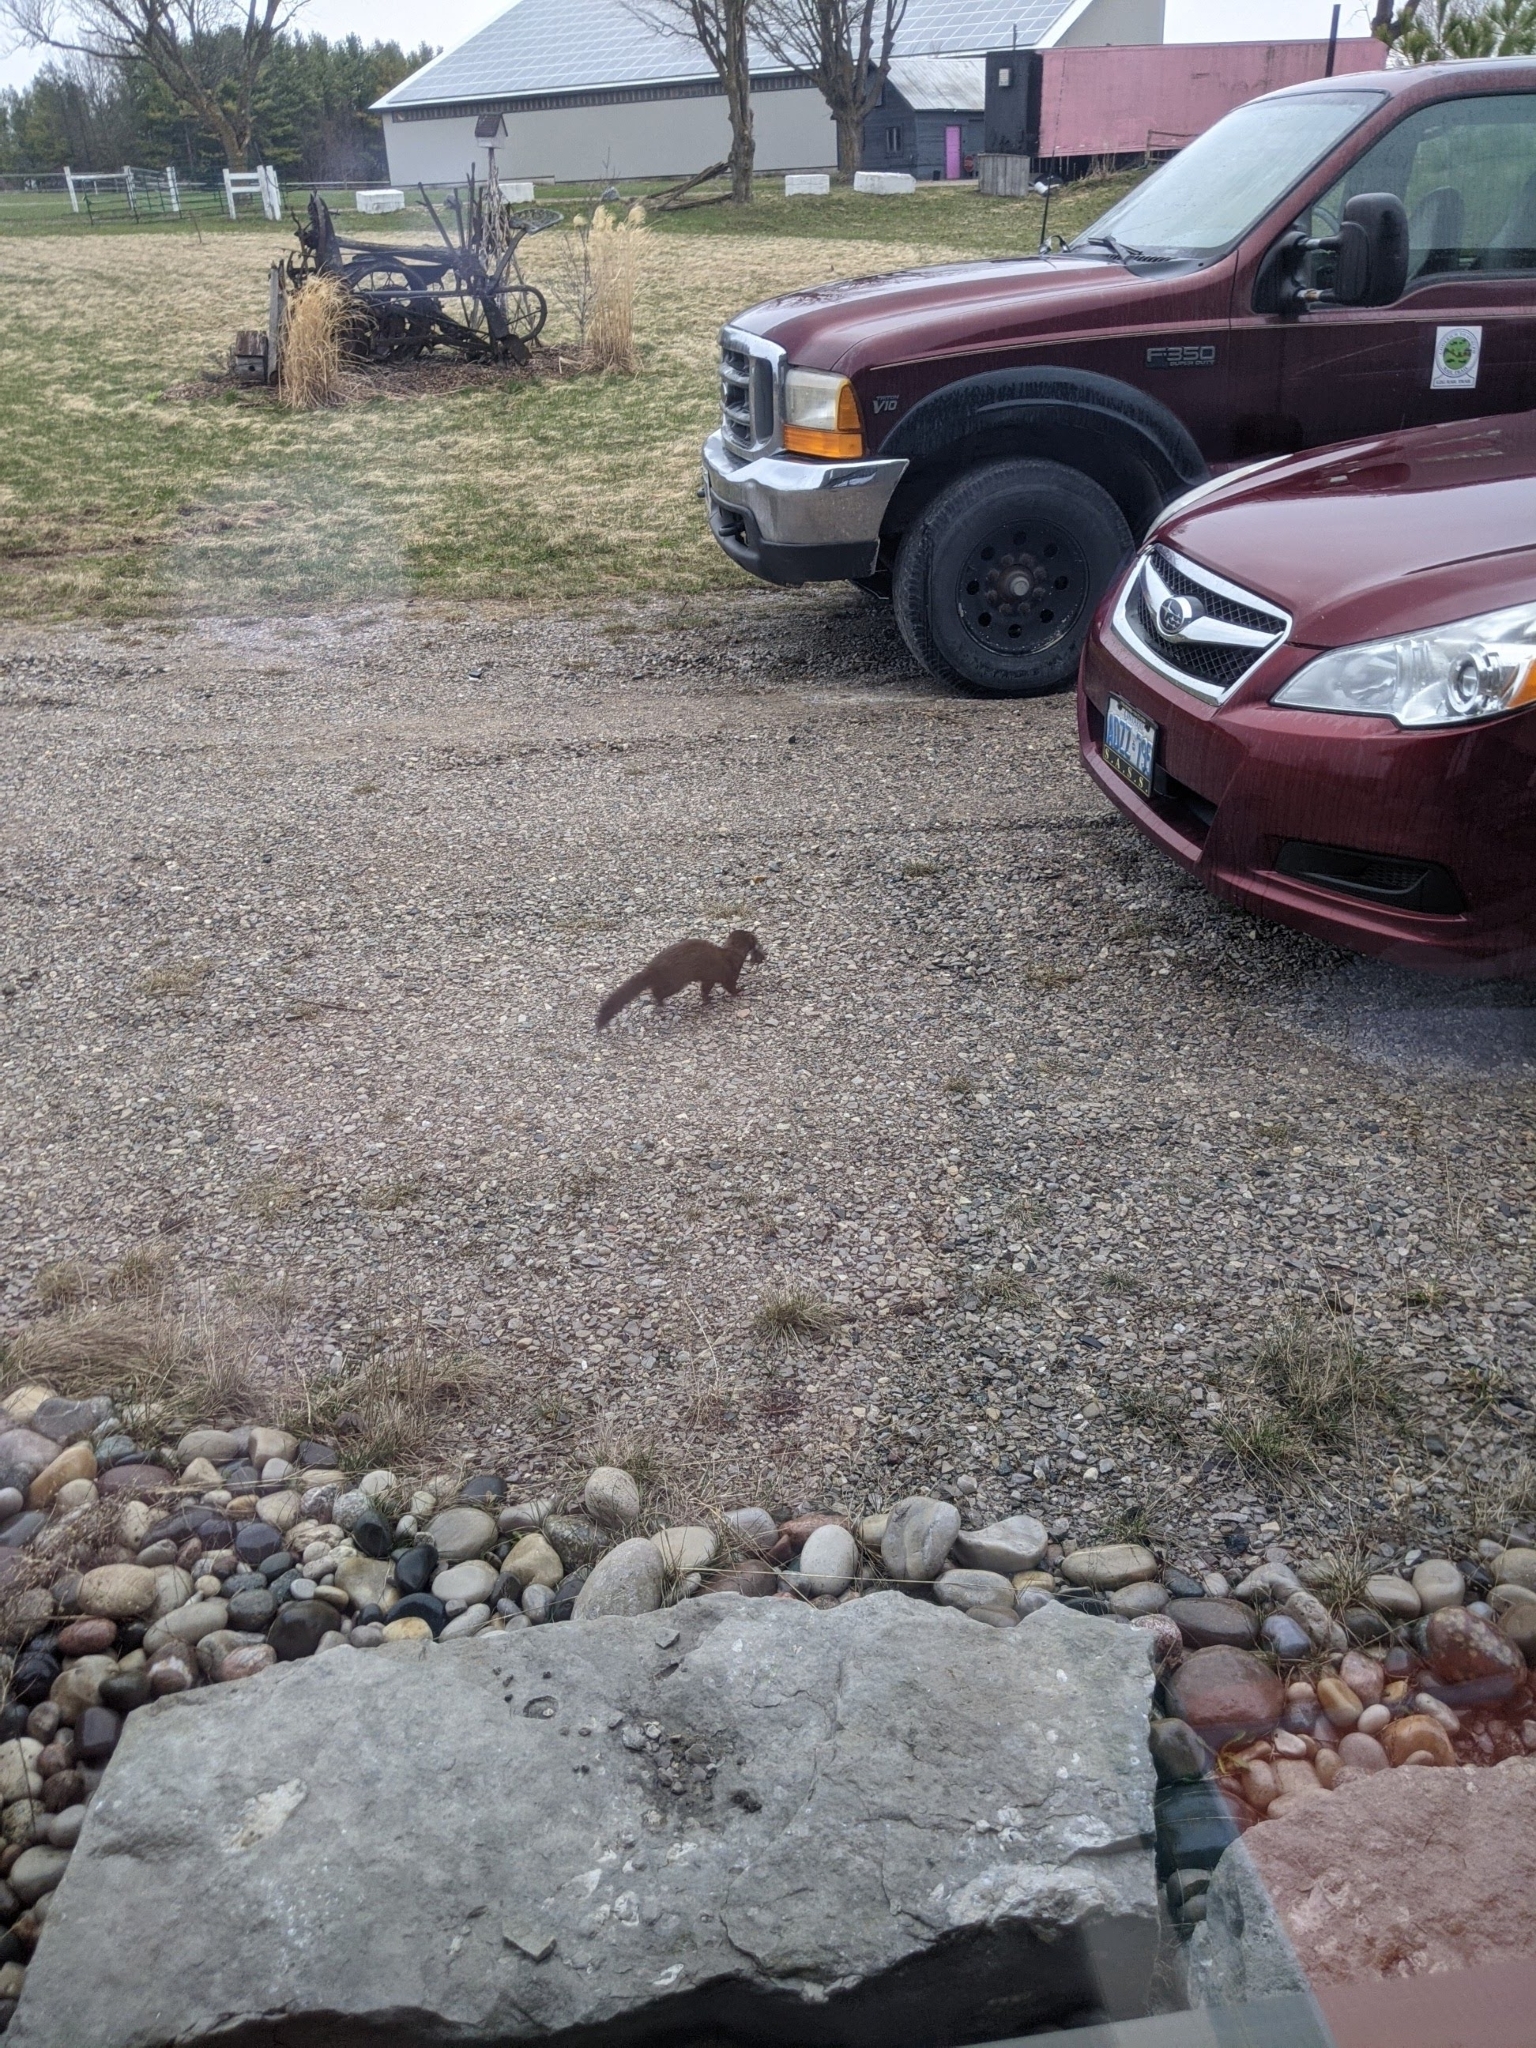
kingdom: Animalia
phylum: Chordata
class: Mammalia
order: Carnivora
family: Mustelidae
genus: Mustela
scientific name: Mustela
